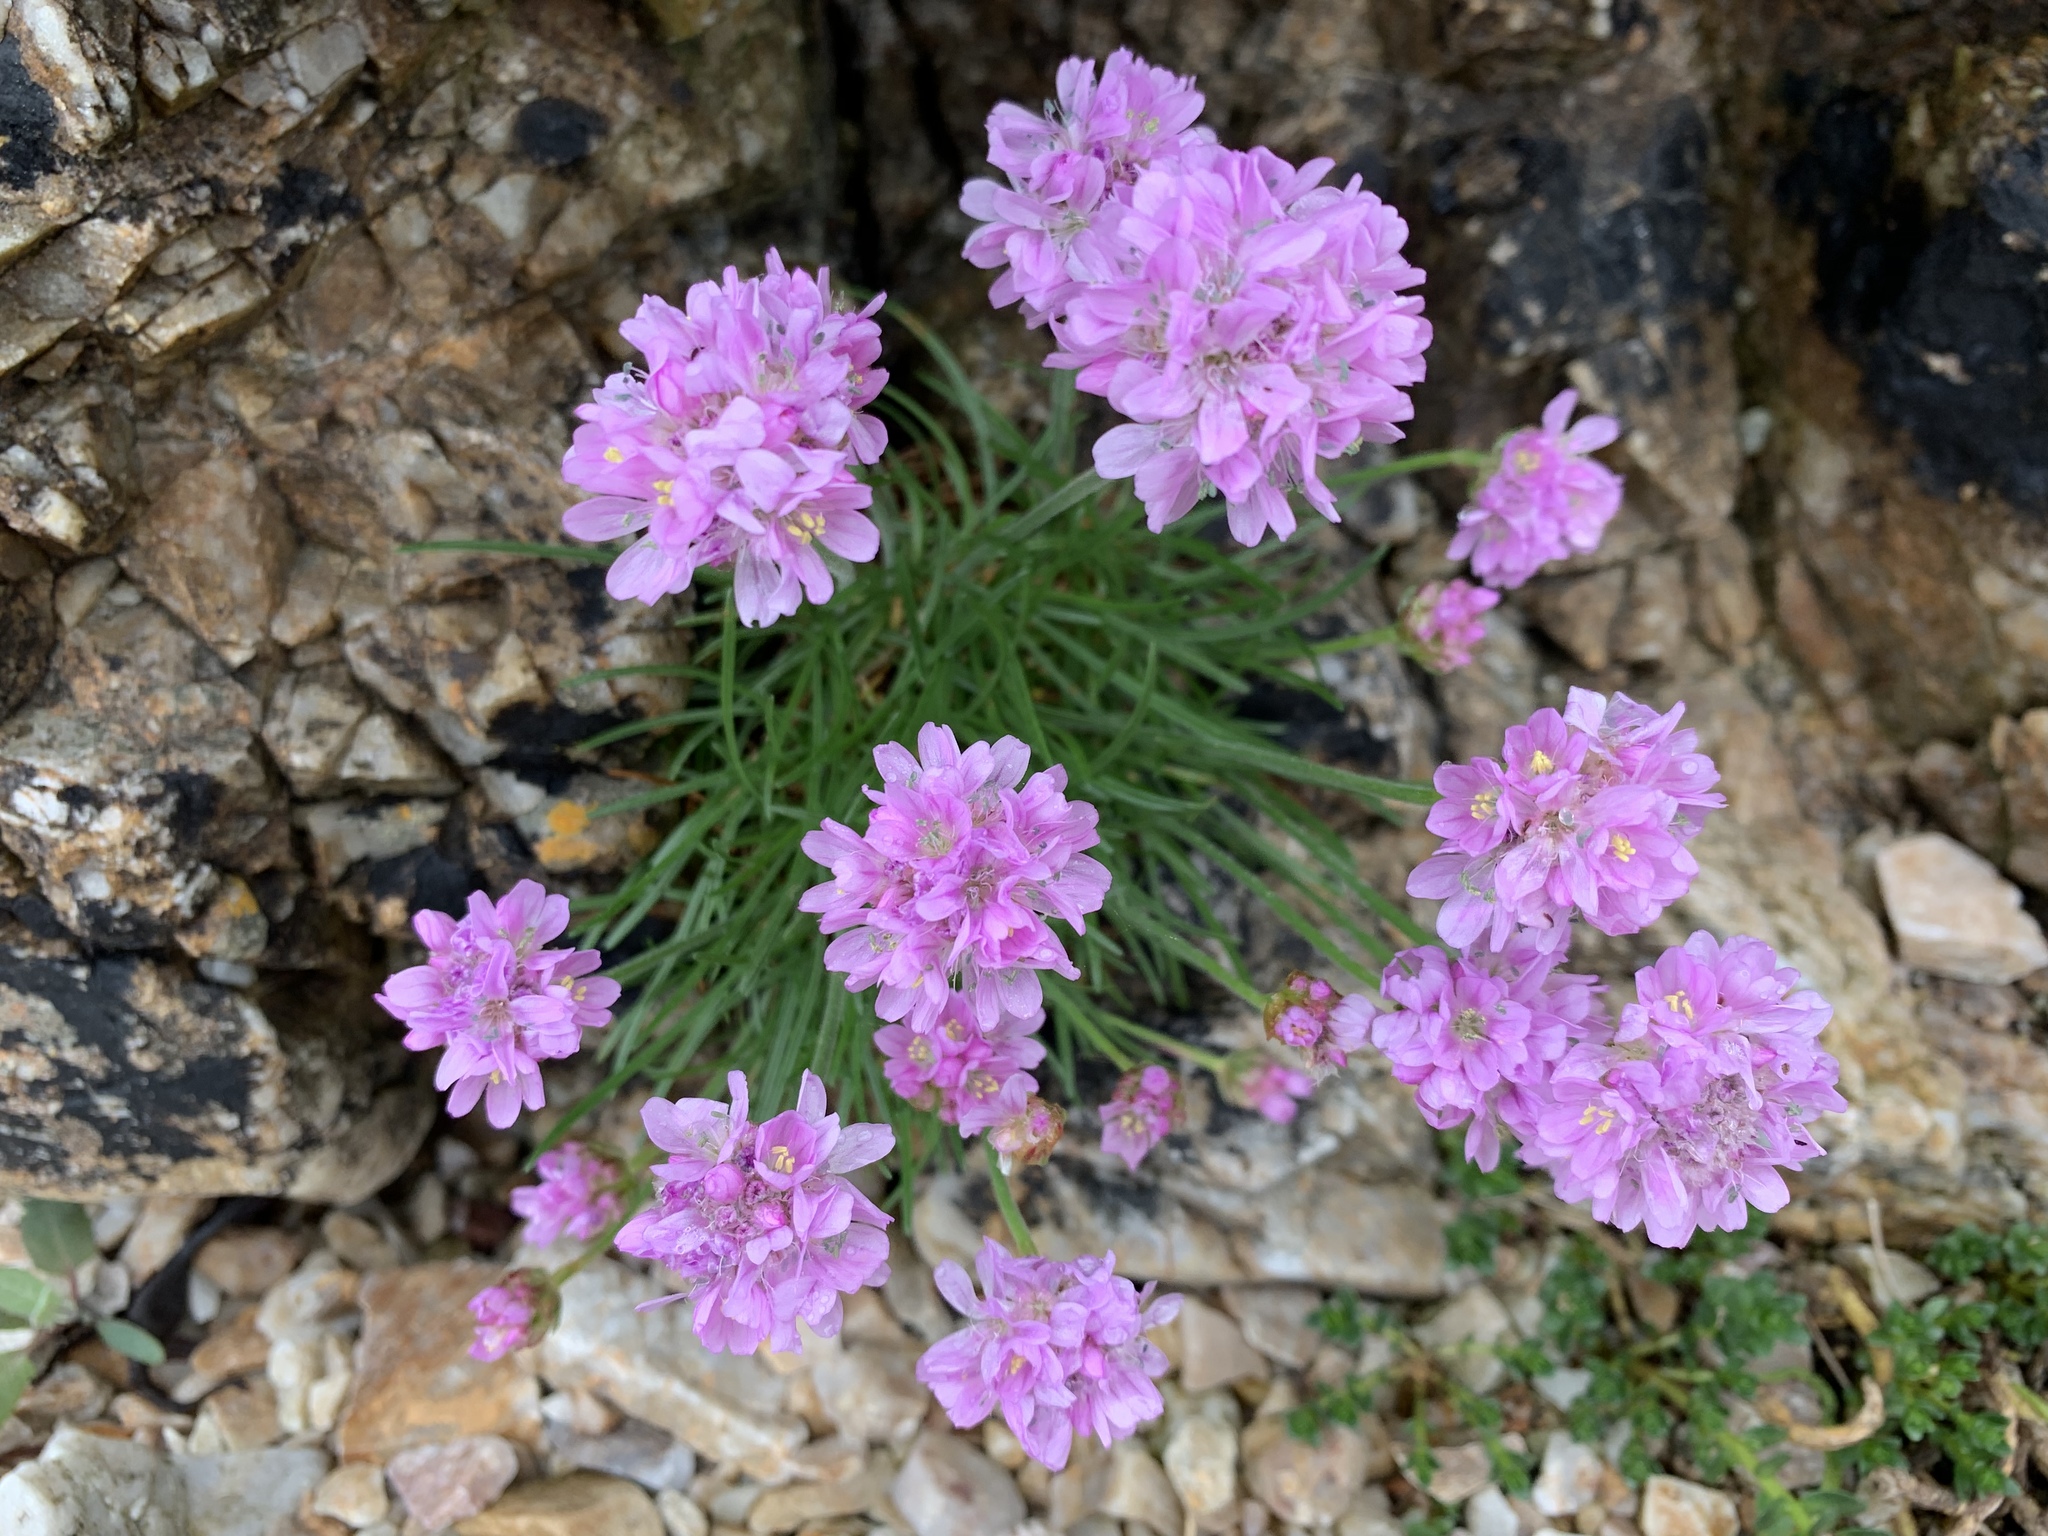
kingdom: Plantae
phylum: Tracheophyta
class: Magnoliopsida
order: Caryophyllales
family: Plumbaginaceae
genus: Armeria
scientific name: Armeria maritima
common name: Thrift
